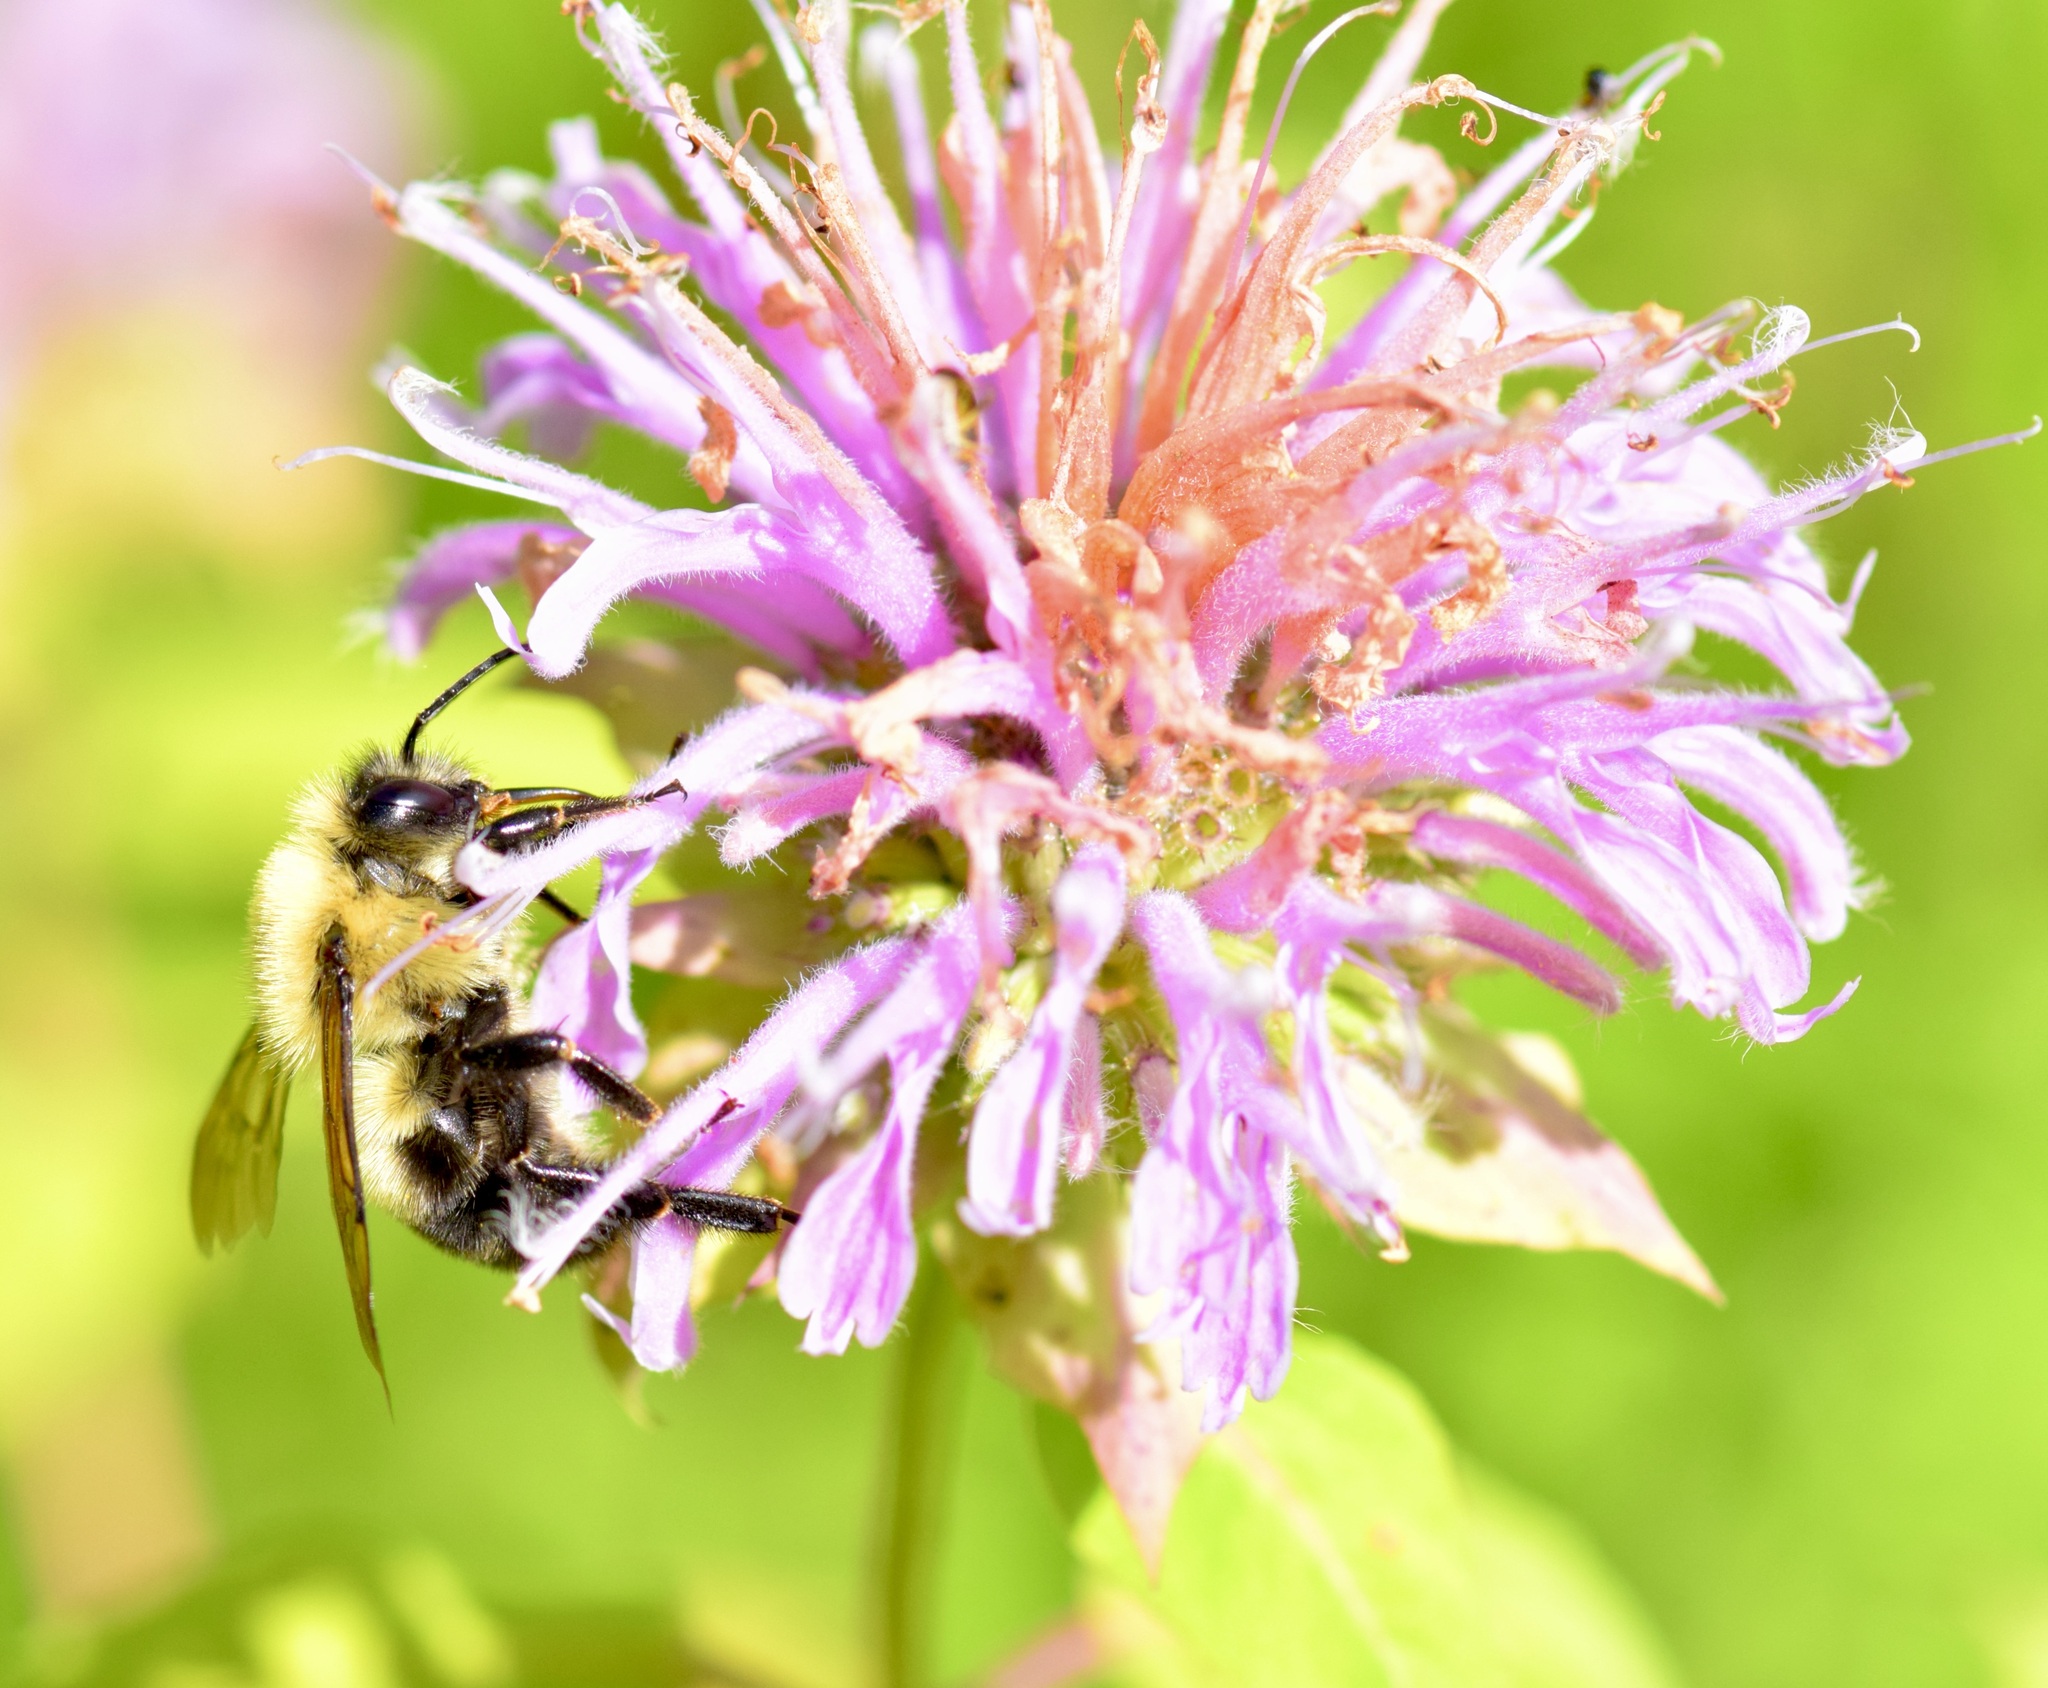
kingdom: Animalia
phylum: Arthropoda
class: Insecta
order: Hymenoptera
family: Apidae
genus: Bombus
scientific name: Bombus bimaculatus
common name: Two-spotted bumble bee
